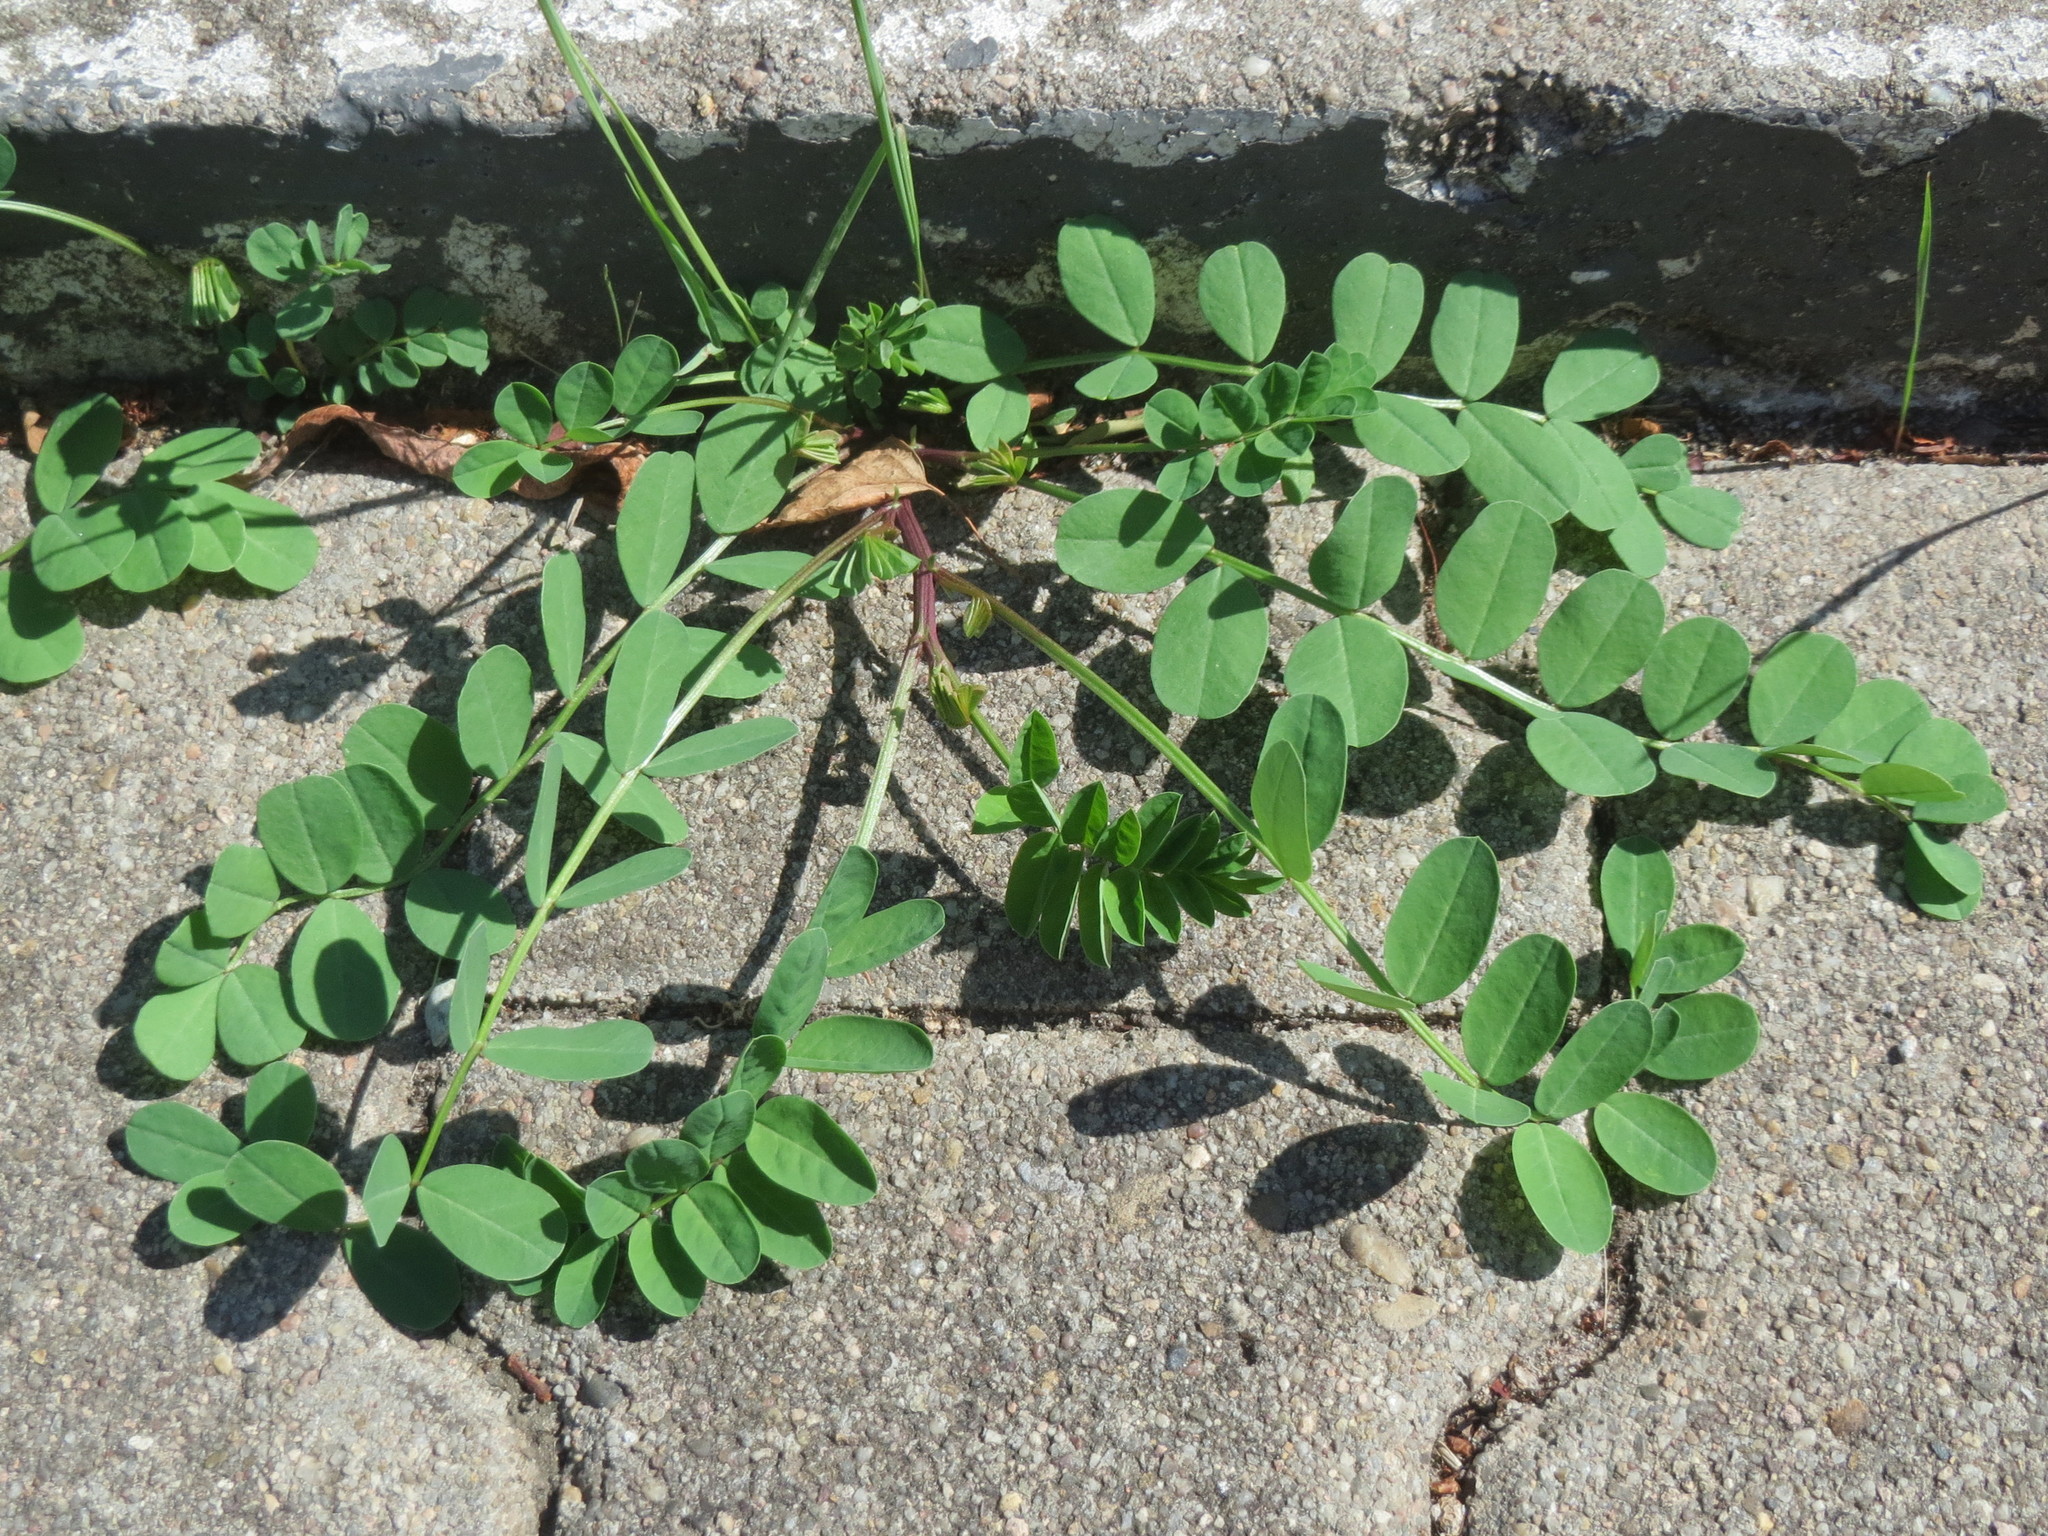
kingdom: Plantae
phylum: Tracheophyta
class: Magnoliopsida
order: Fabales
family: Fabaceae
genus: Astragalus
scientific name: Astragalus glycyphyllos
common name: Wild liquorice
